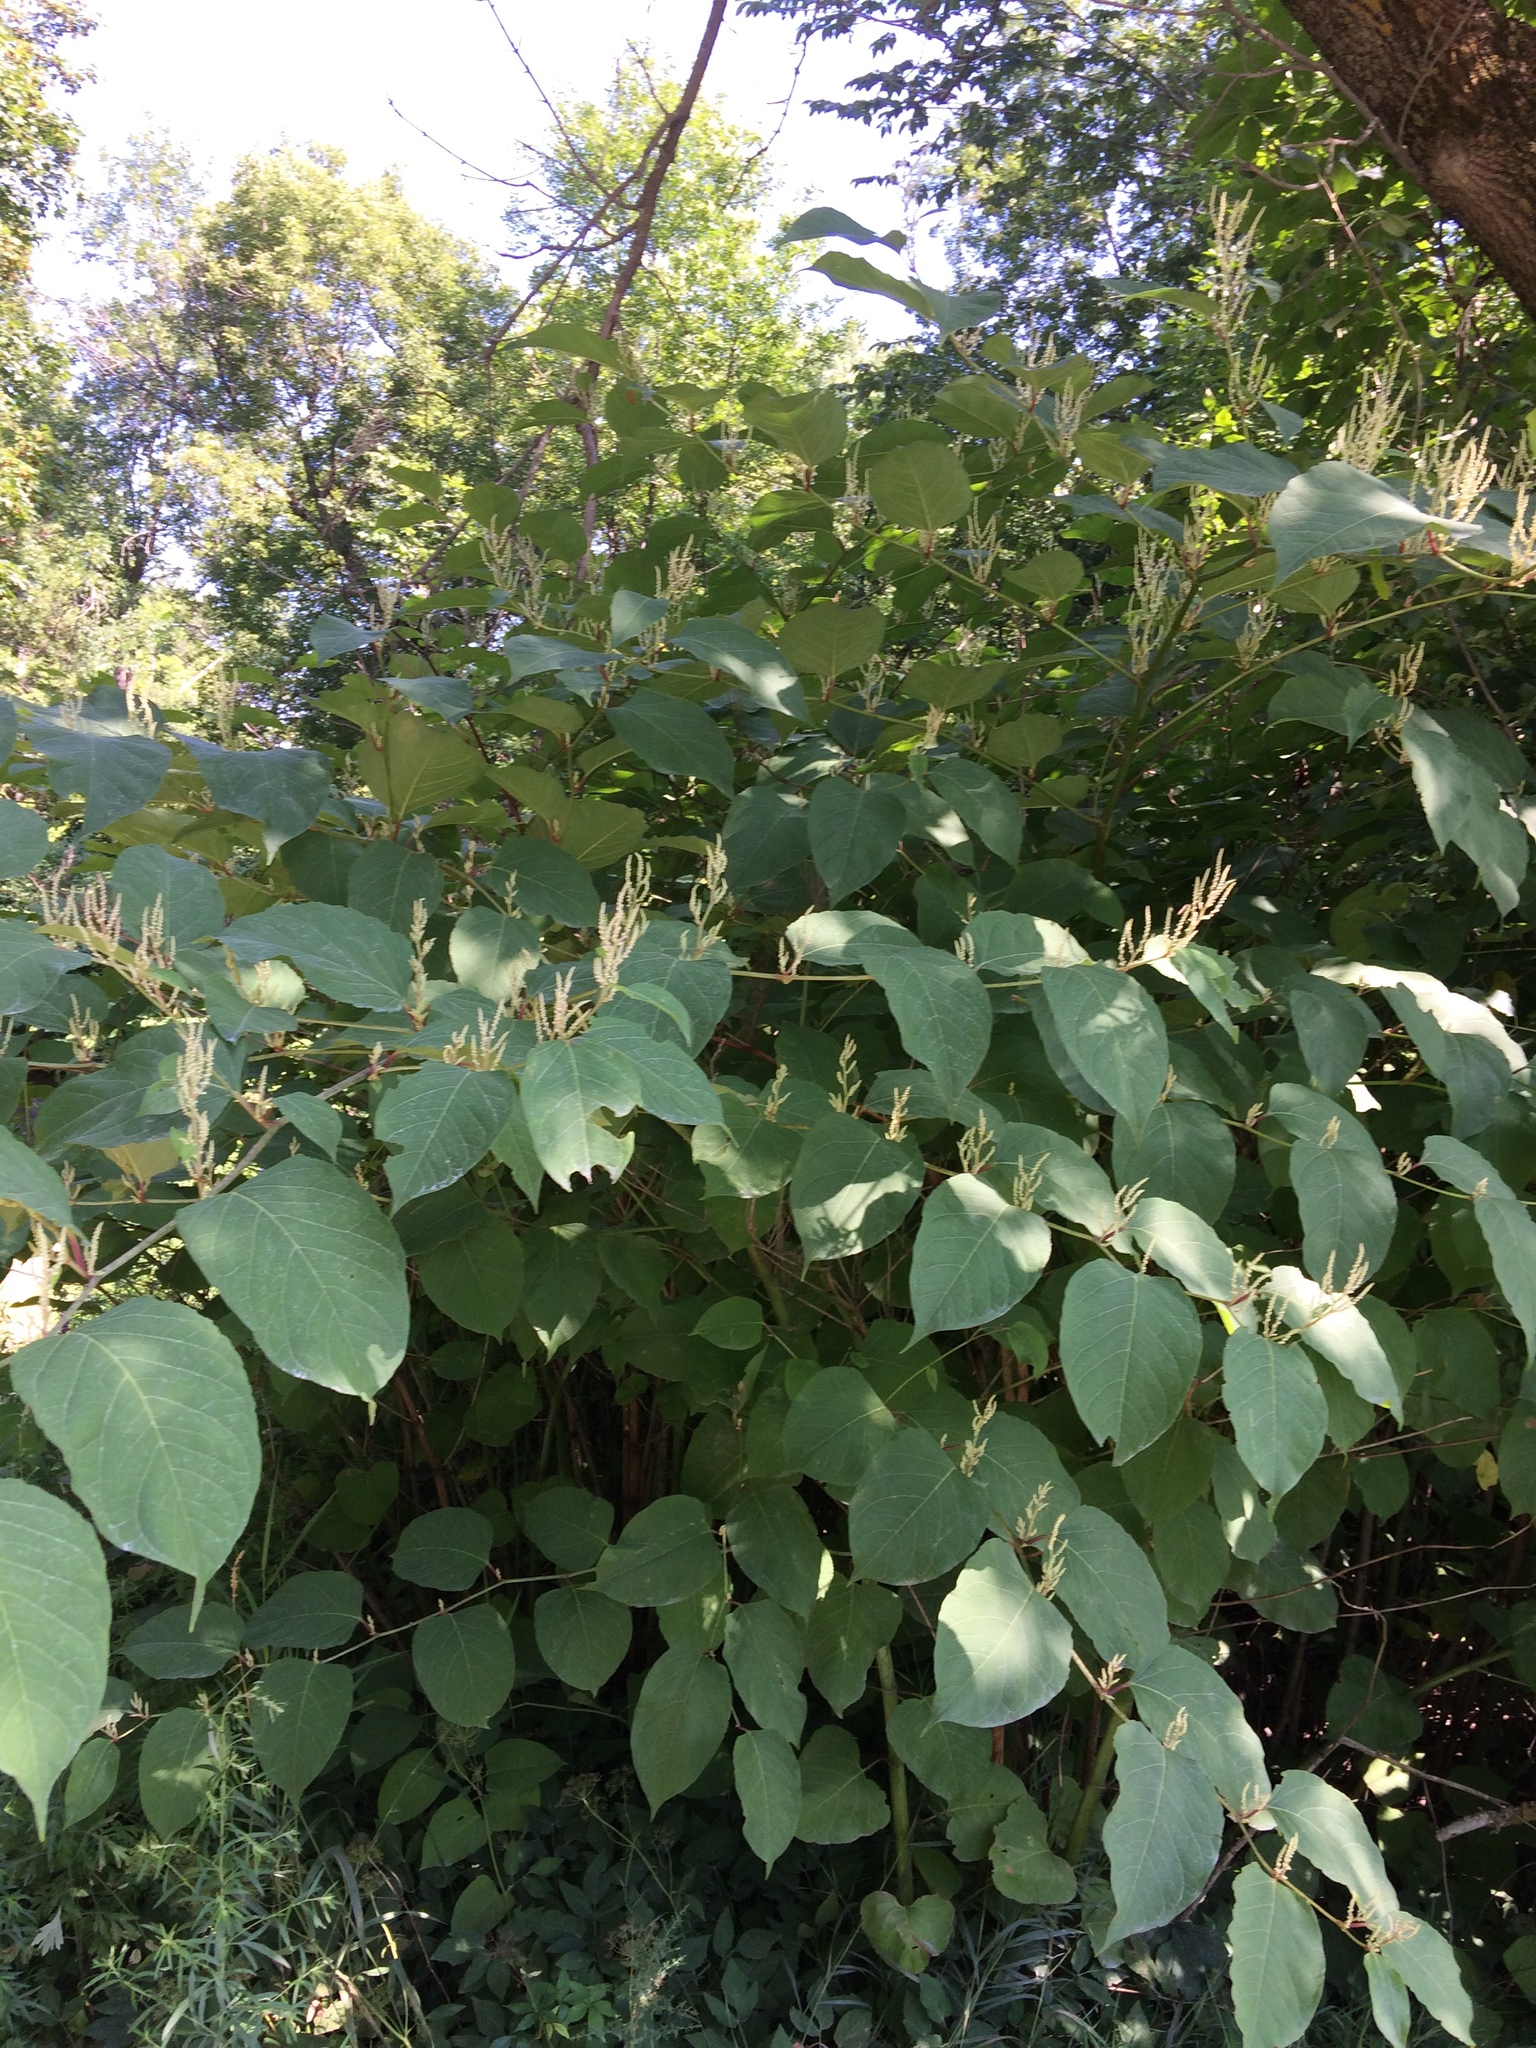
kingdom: Plantae
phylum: Tracheophyta
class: Magnoliopsida
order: Caryophyllales
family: Polygonaceae
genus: Reynoutria
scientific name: Reynoutria japonica
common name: Japanese knotweed
